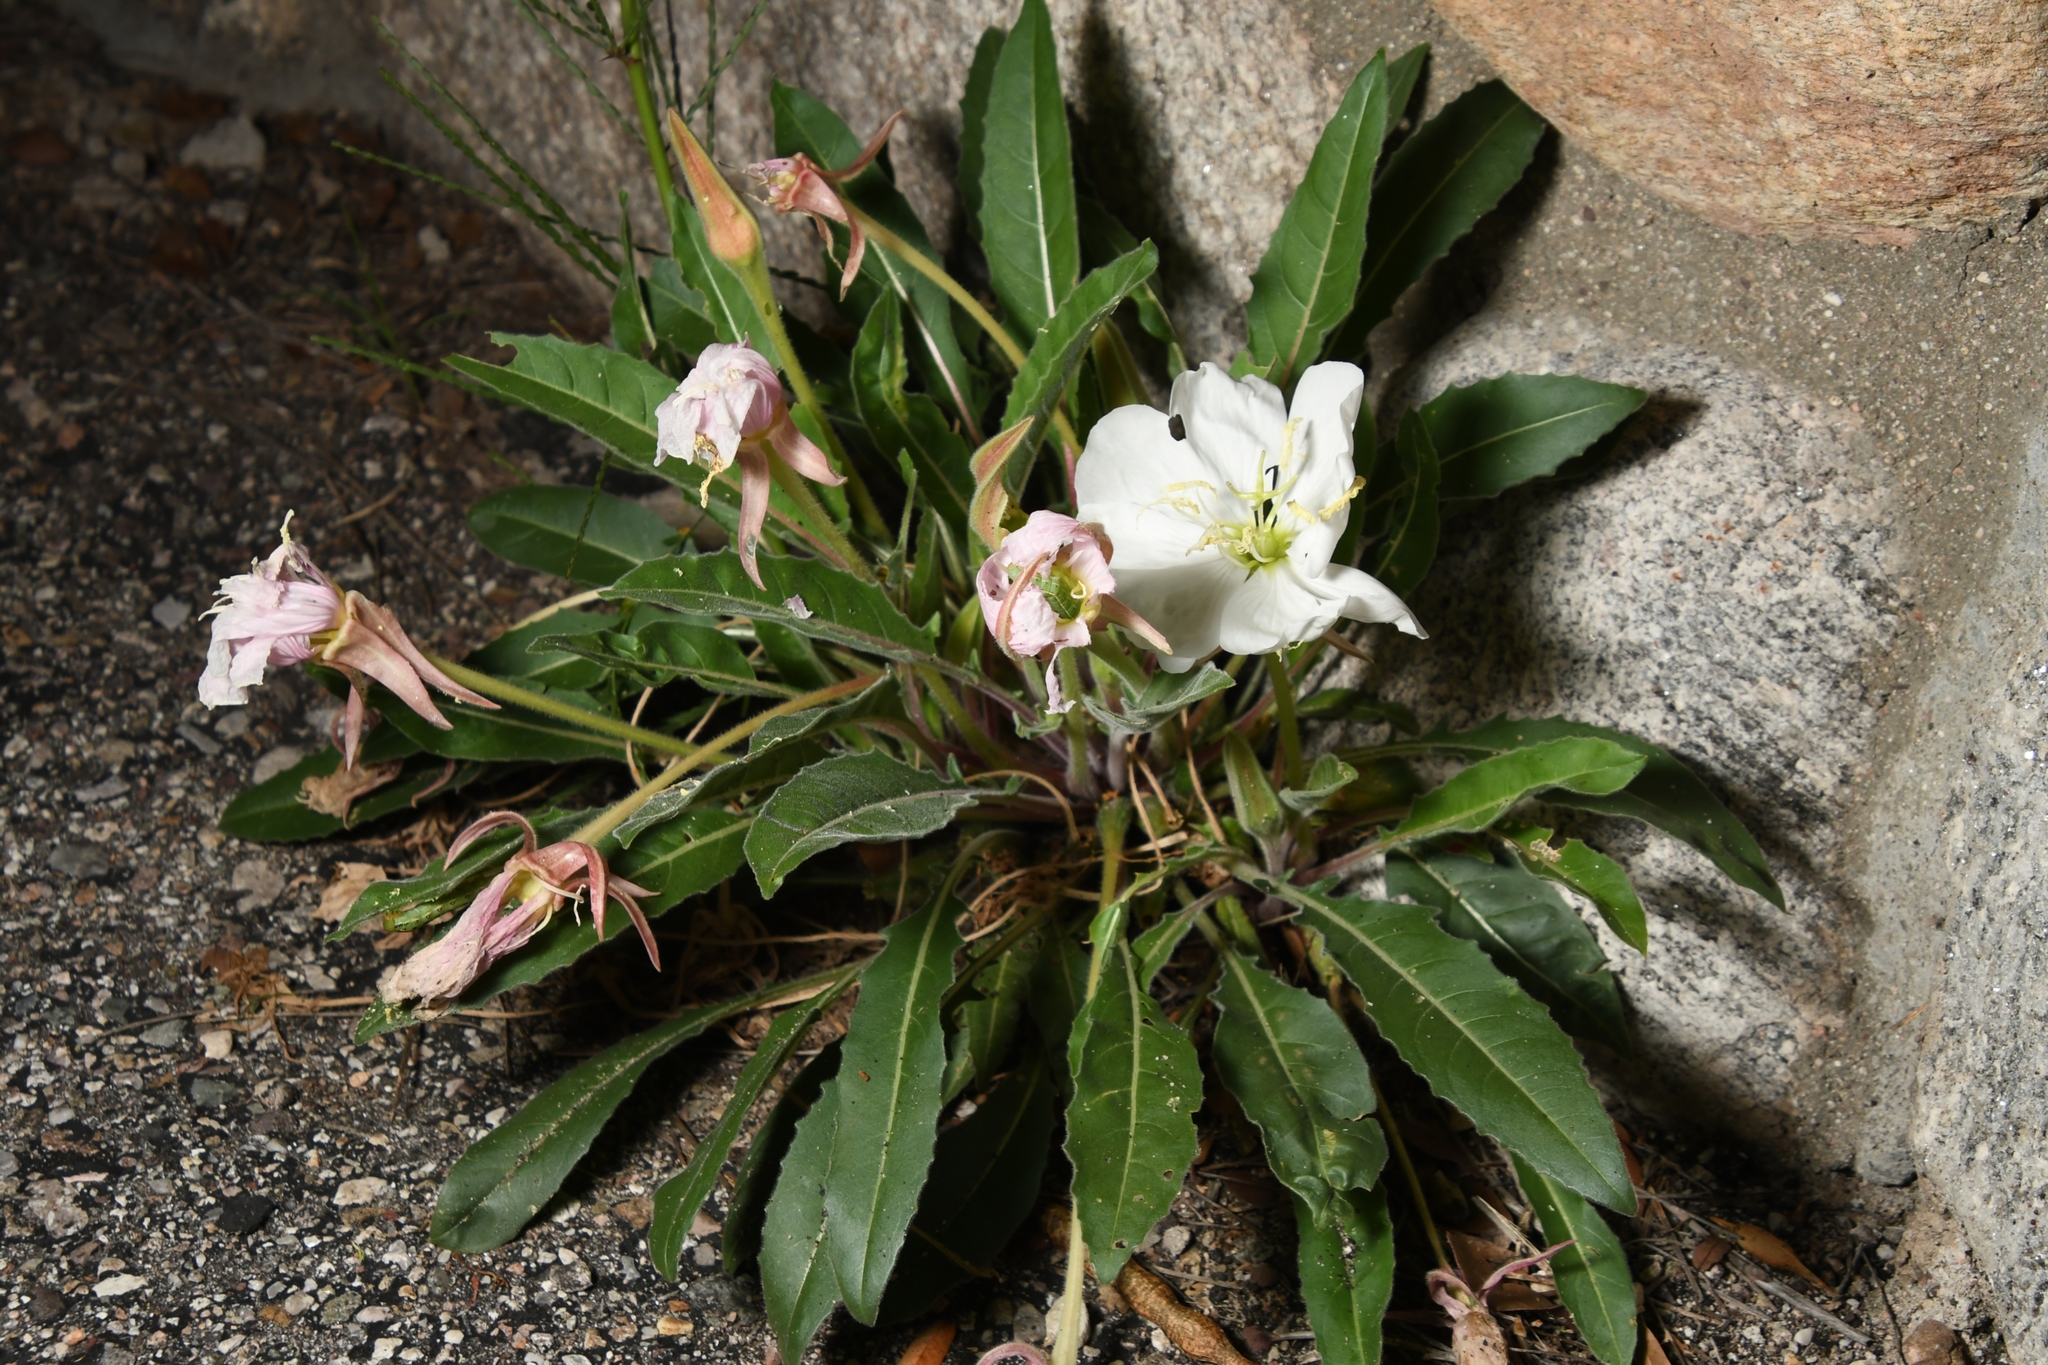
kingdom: Plantae
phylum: Tracheophyta
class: Magnoliopsida
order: Myrtales
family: Onagraceae
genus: Oenothera
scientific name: Oenothera cespitosa
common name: Tufted evening-primrose
